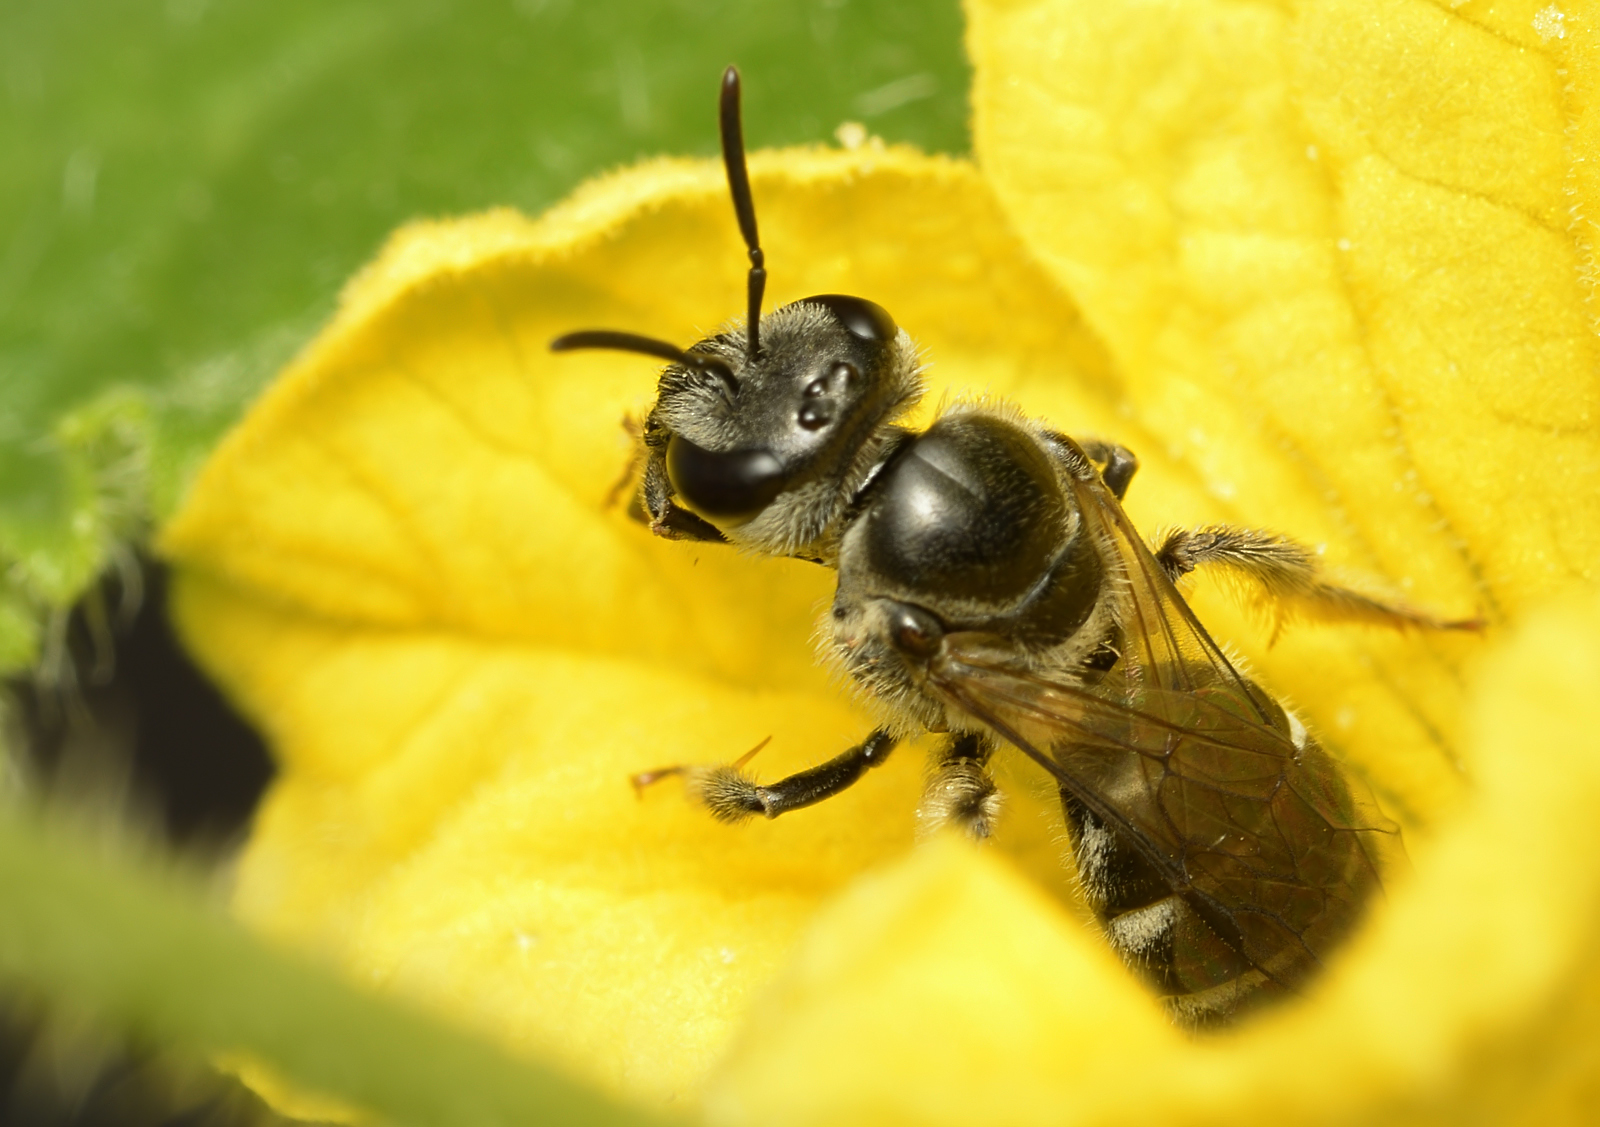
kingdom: Animalia
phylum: Arthropoda
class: Insecta
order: Hymenoptera
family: Halictidae
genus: Lasioglossum
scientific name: Lasioglossum albescens
